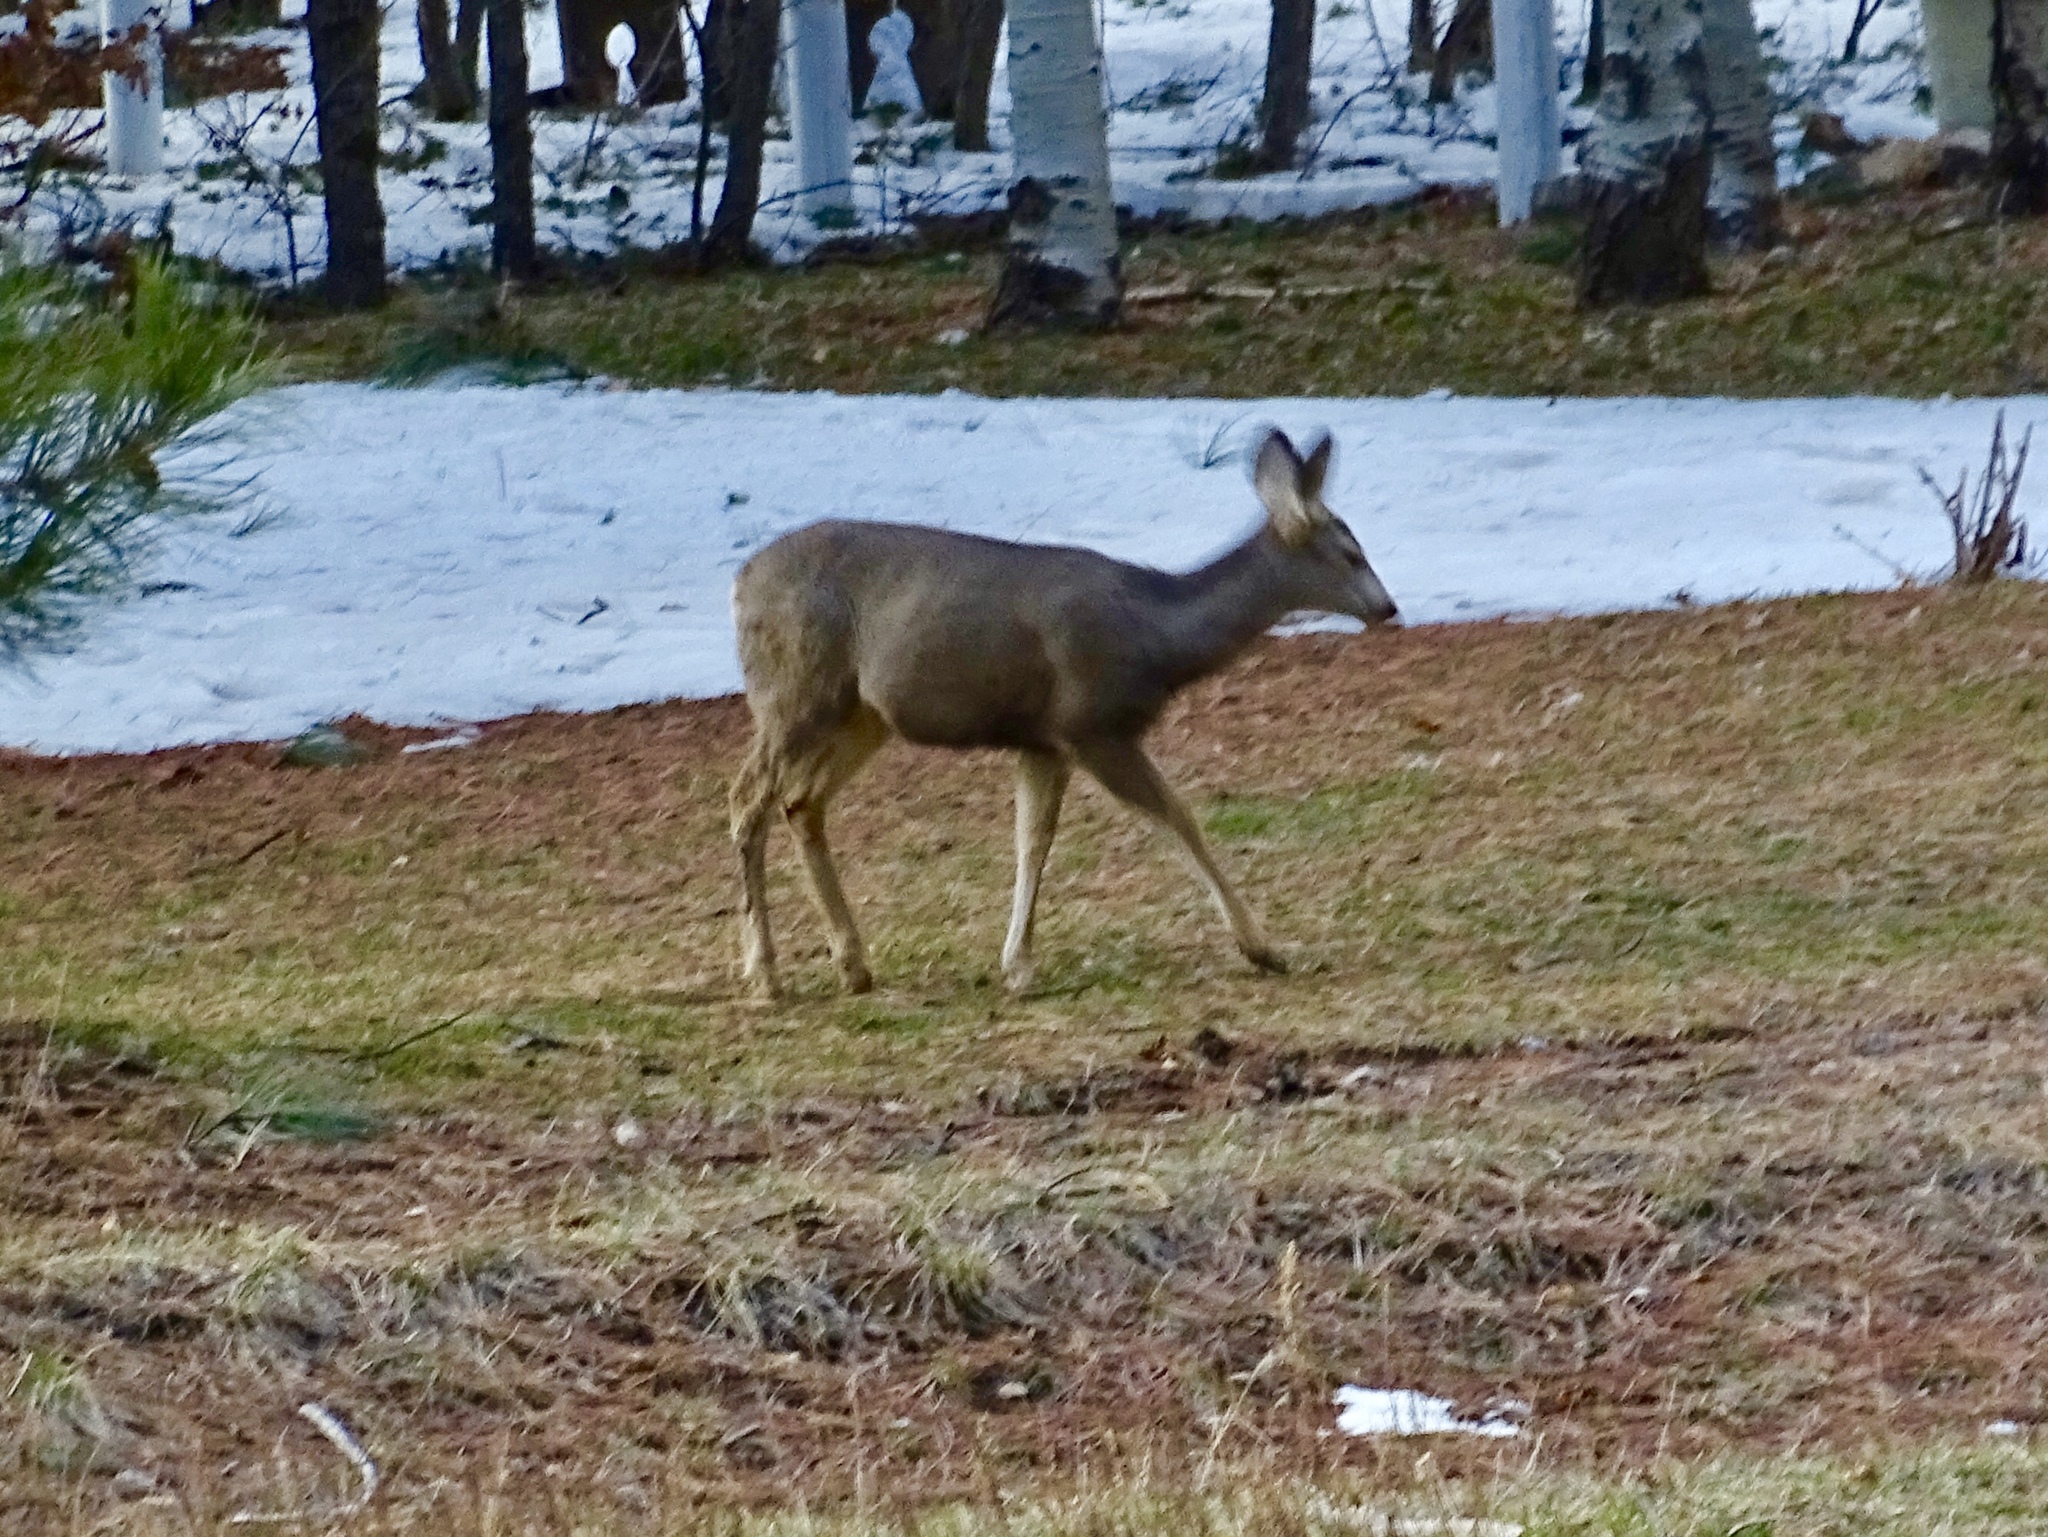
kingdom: Animalia
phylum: Chordata
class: Mammalia
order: Artiodactyla
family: Cervidae
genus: Odocoileus
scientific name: Odocoileus hemionus
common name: Mule deer
